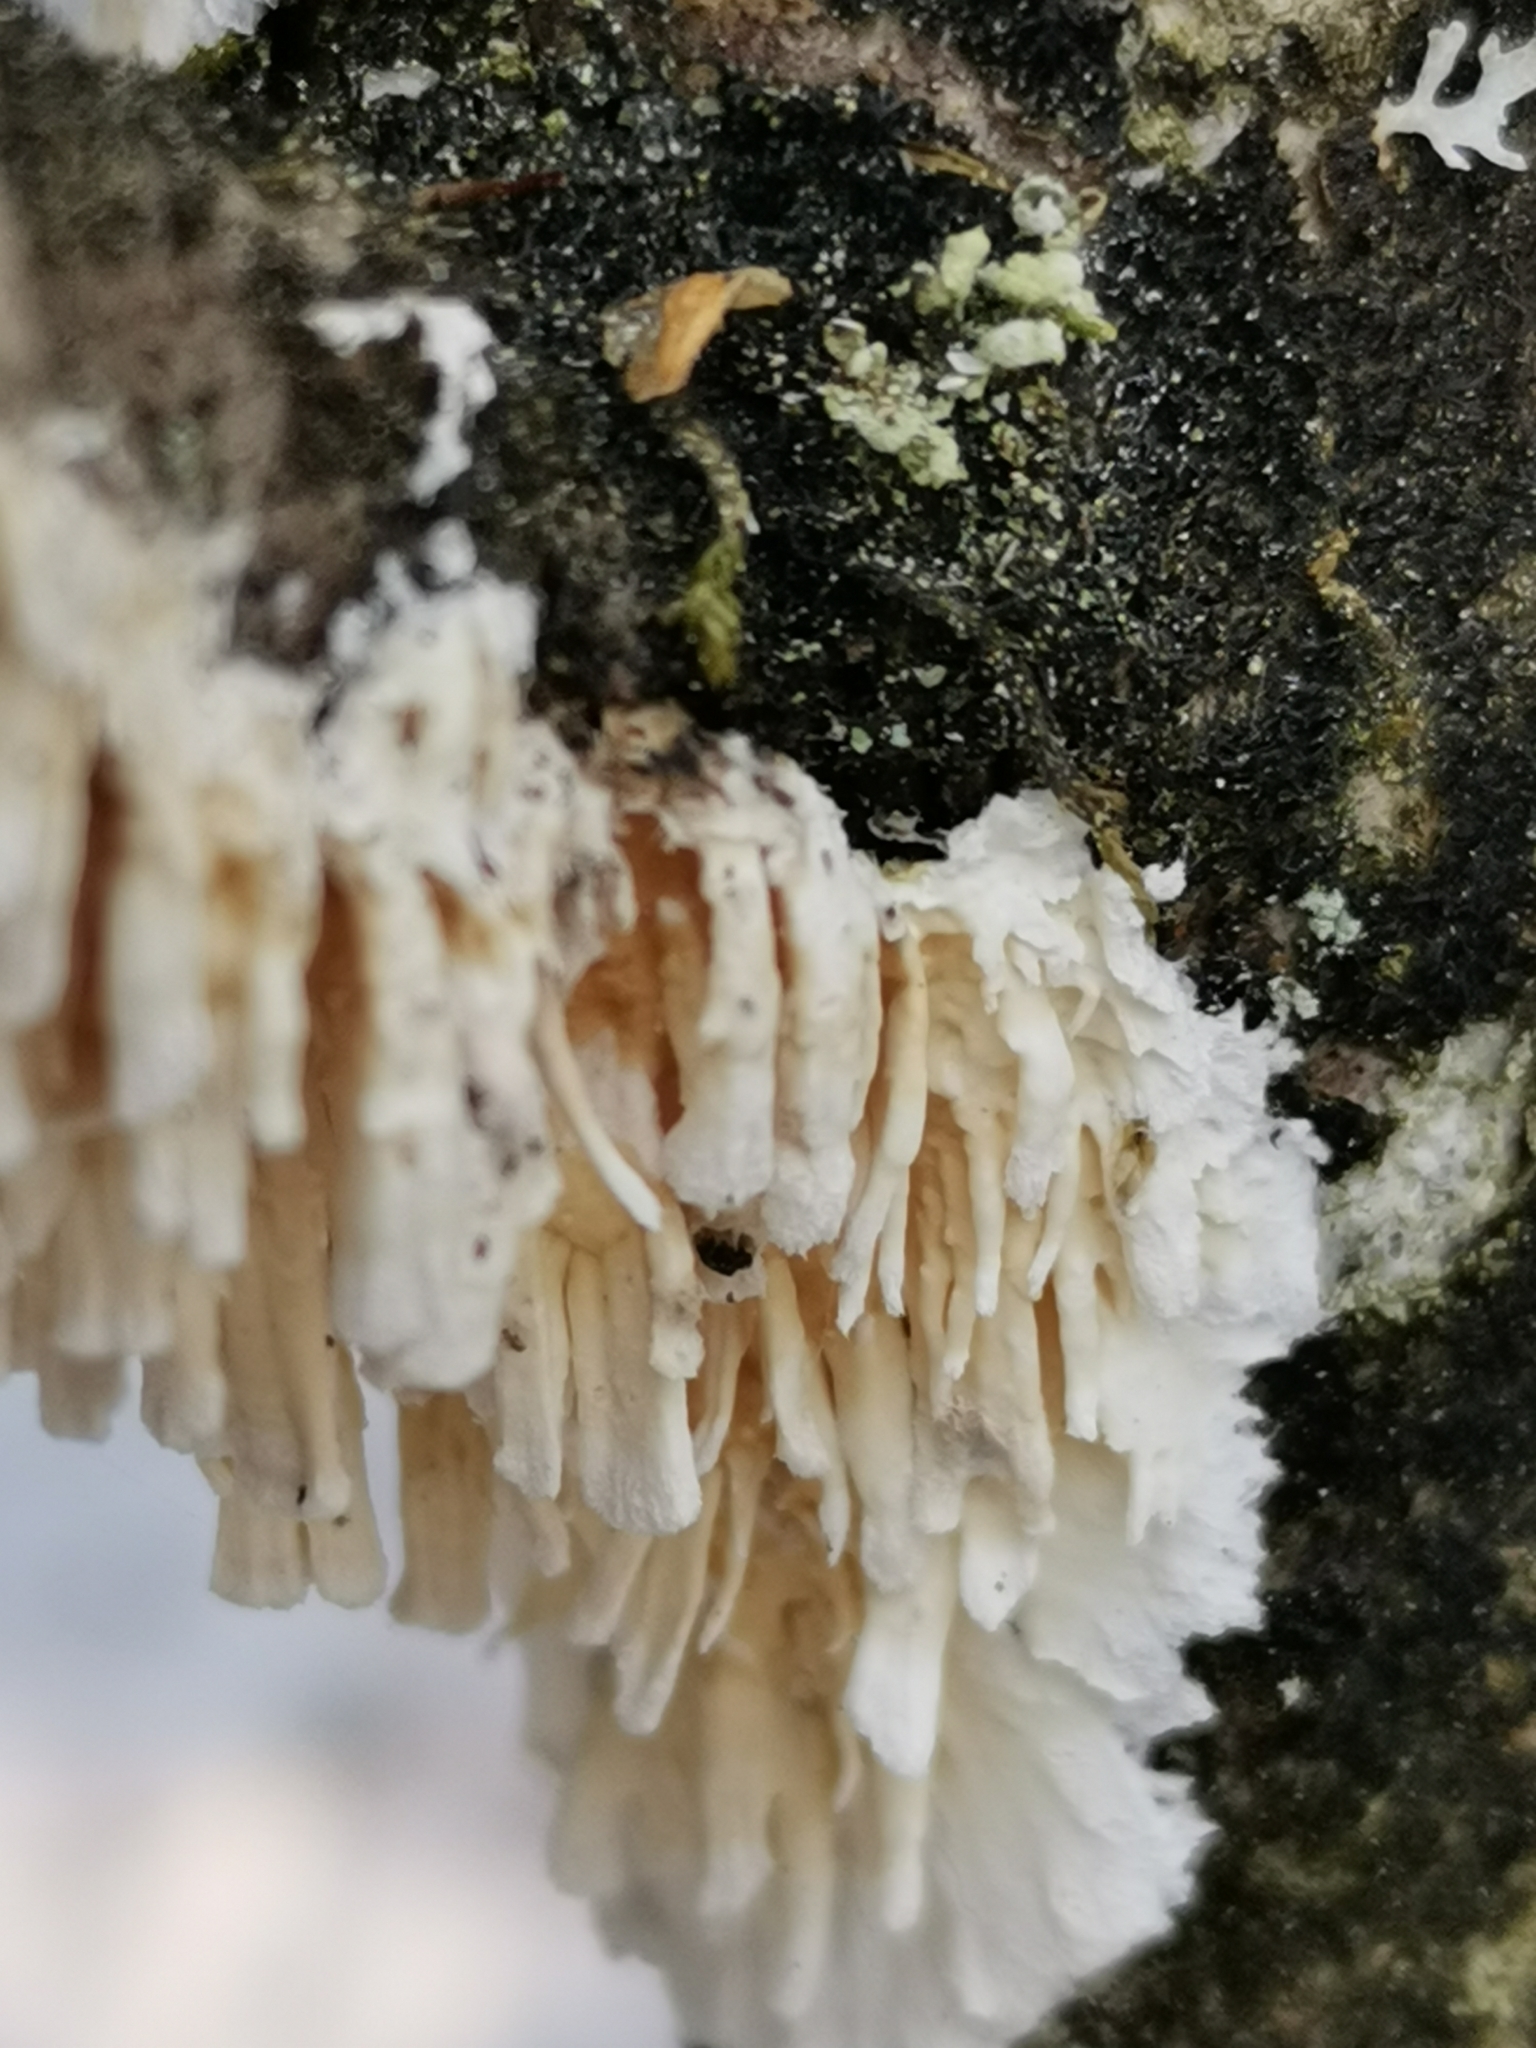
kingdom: Fungi
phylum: Basidiomycota
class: Agaricomycetes
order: Hymenochaetales
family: Schizoporaceae
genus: Xylodon
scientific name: Xylodon radula
